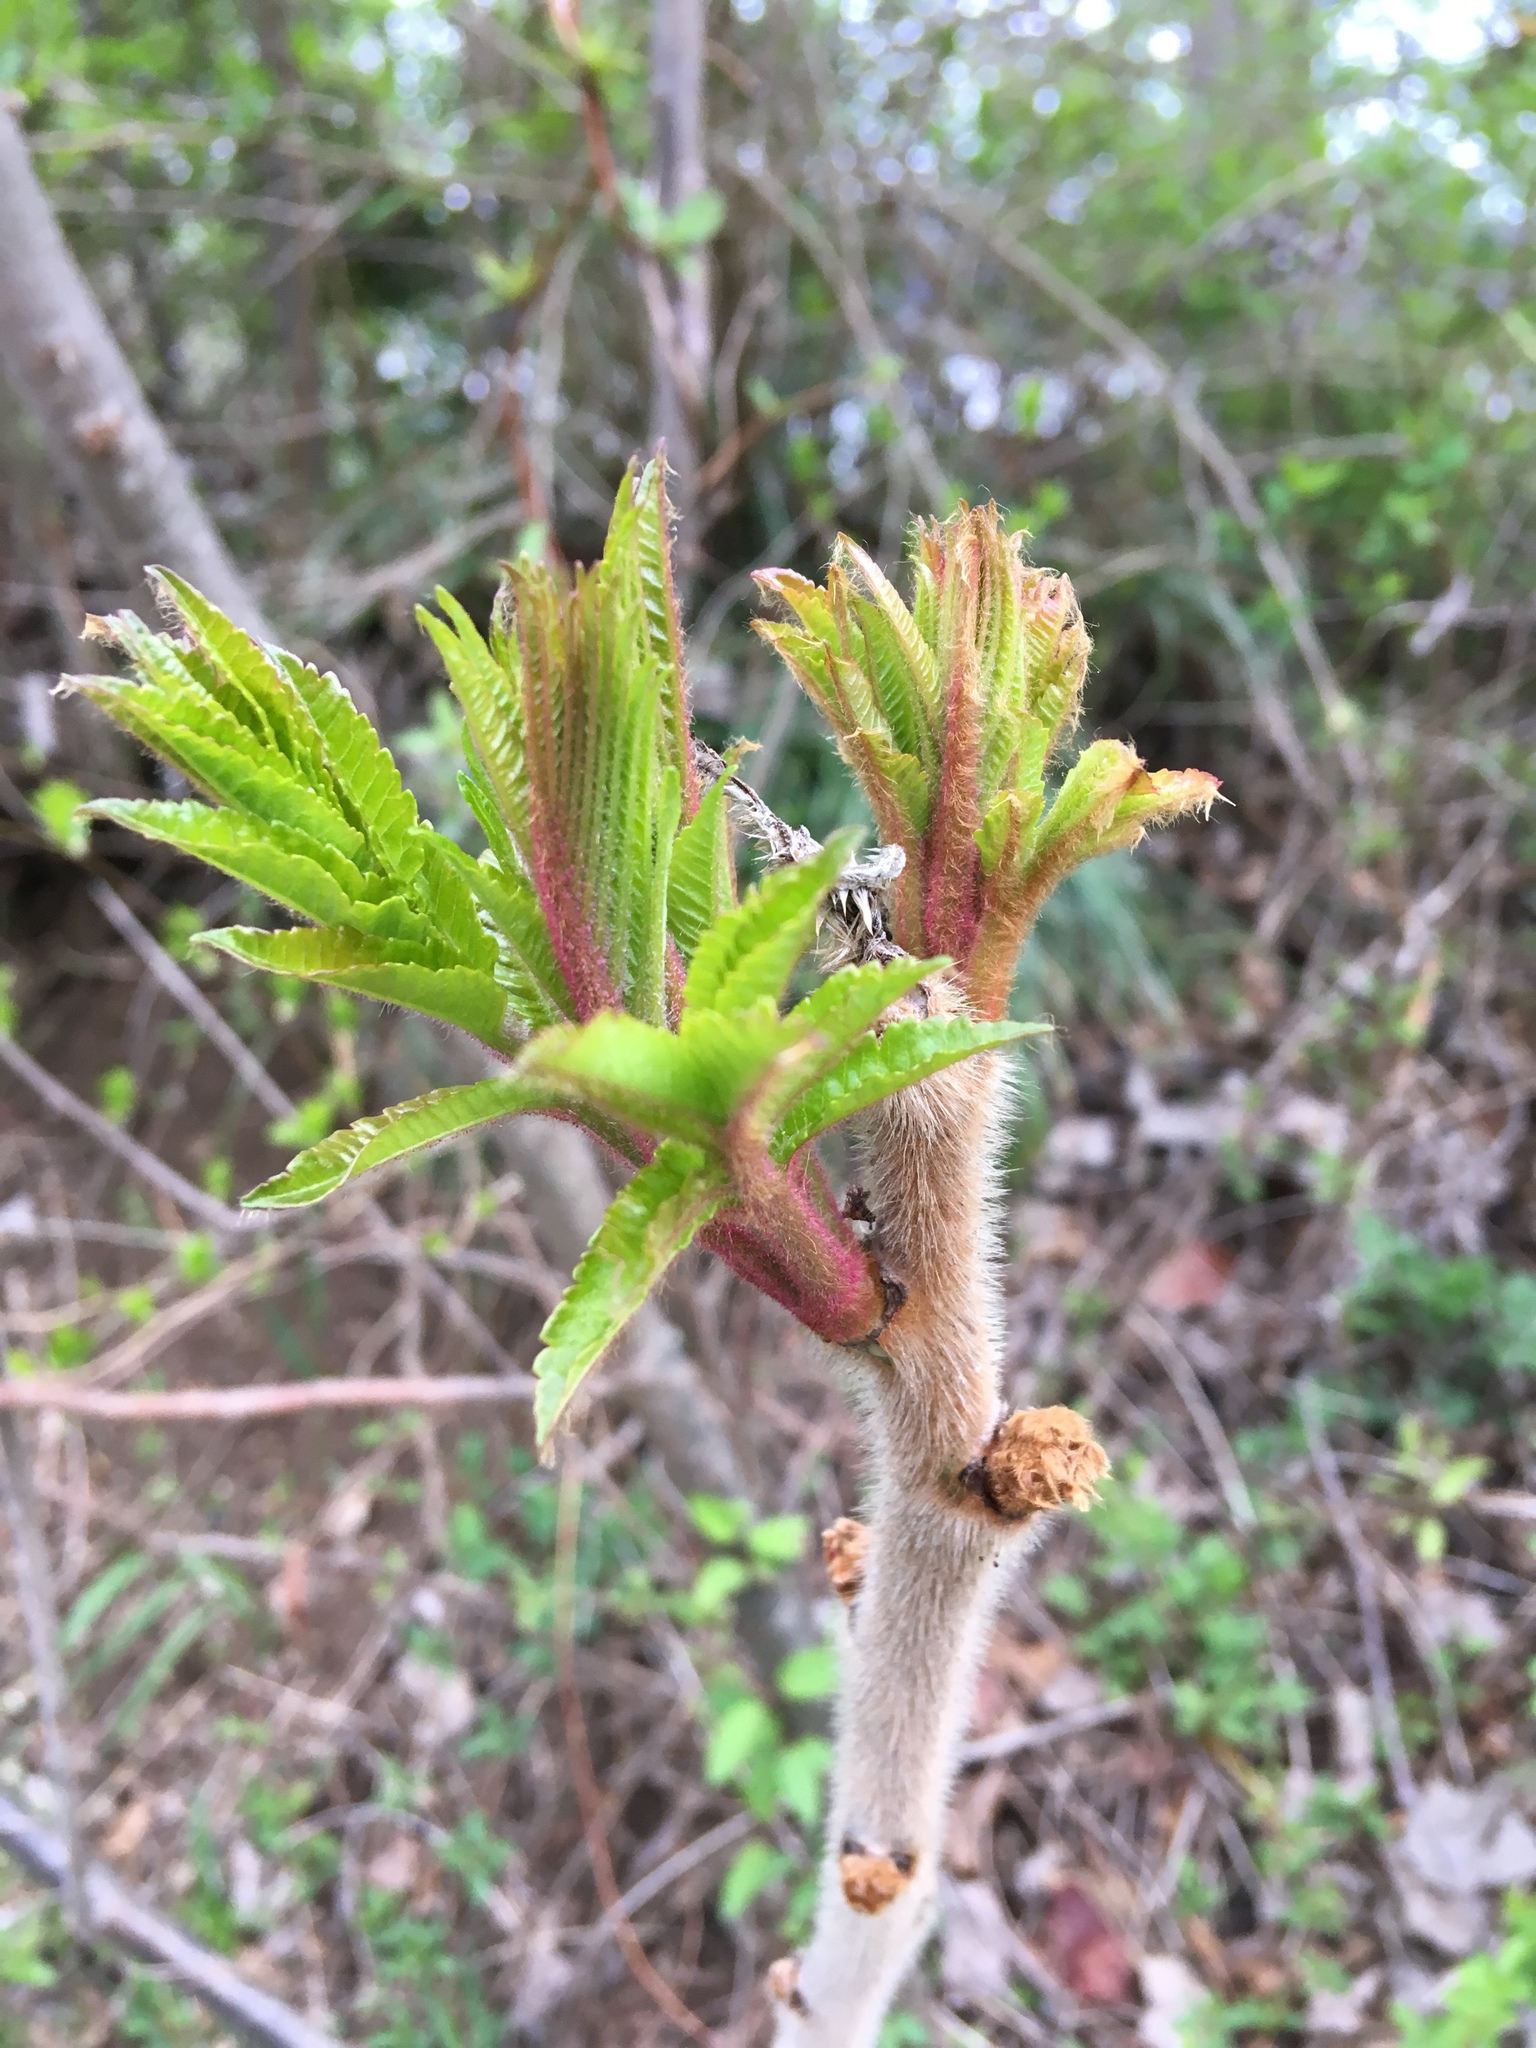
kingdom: Plantae
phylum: Tracheophyta
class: Magnoliopsida
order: Sapindales
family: Anacardiaceae
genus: Rhus
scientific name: Rhus typhina
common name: Staghorn sumac
